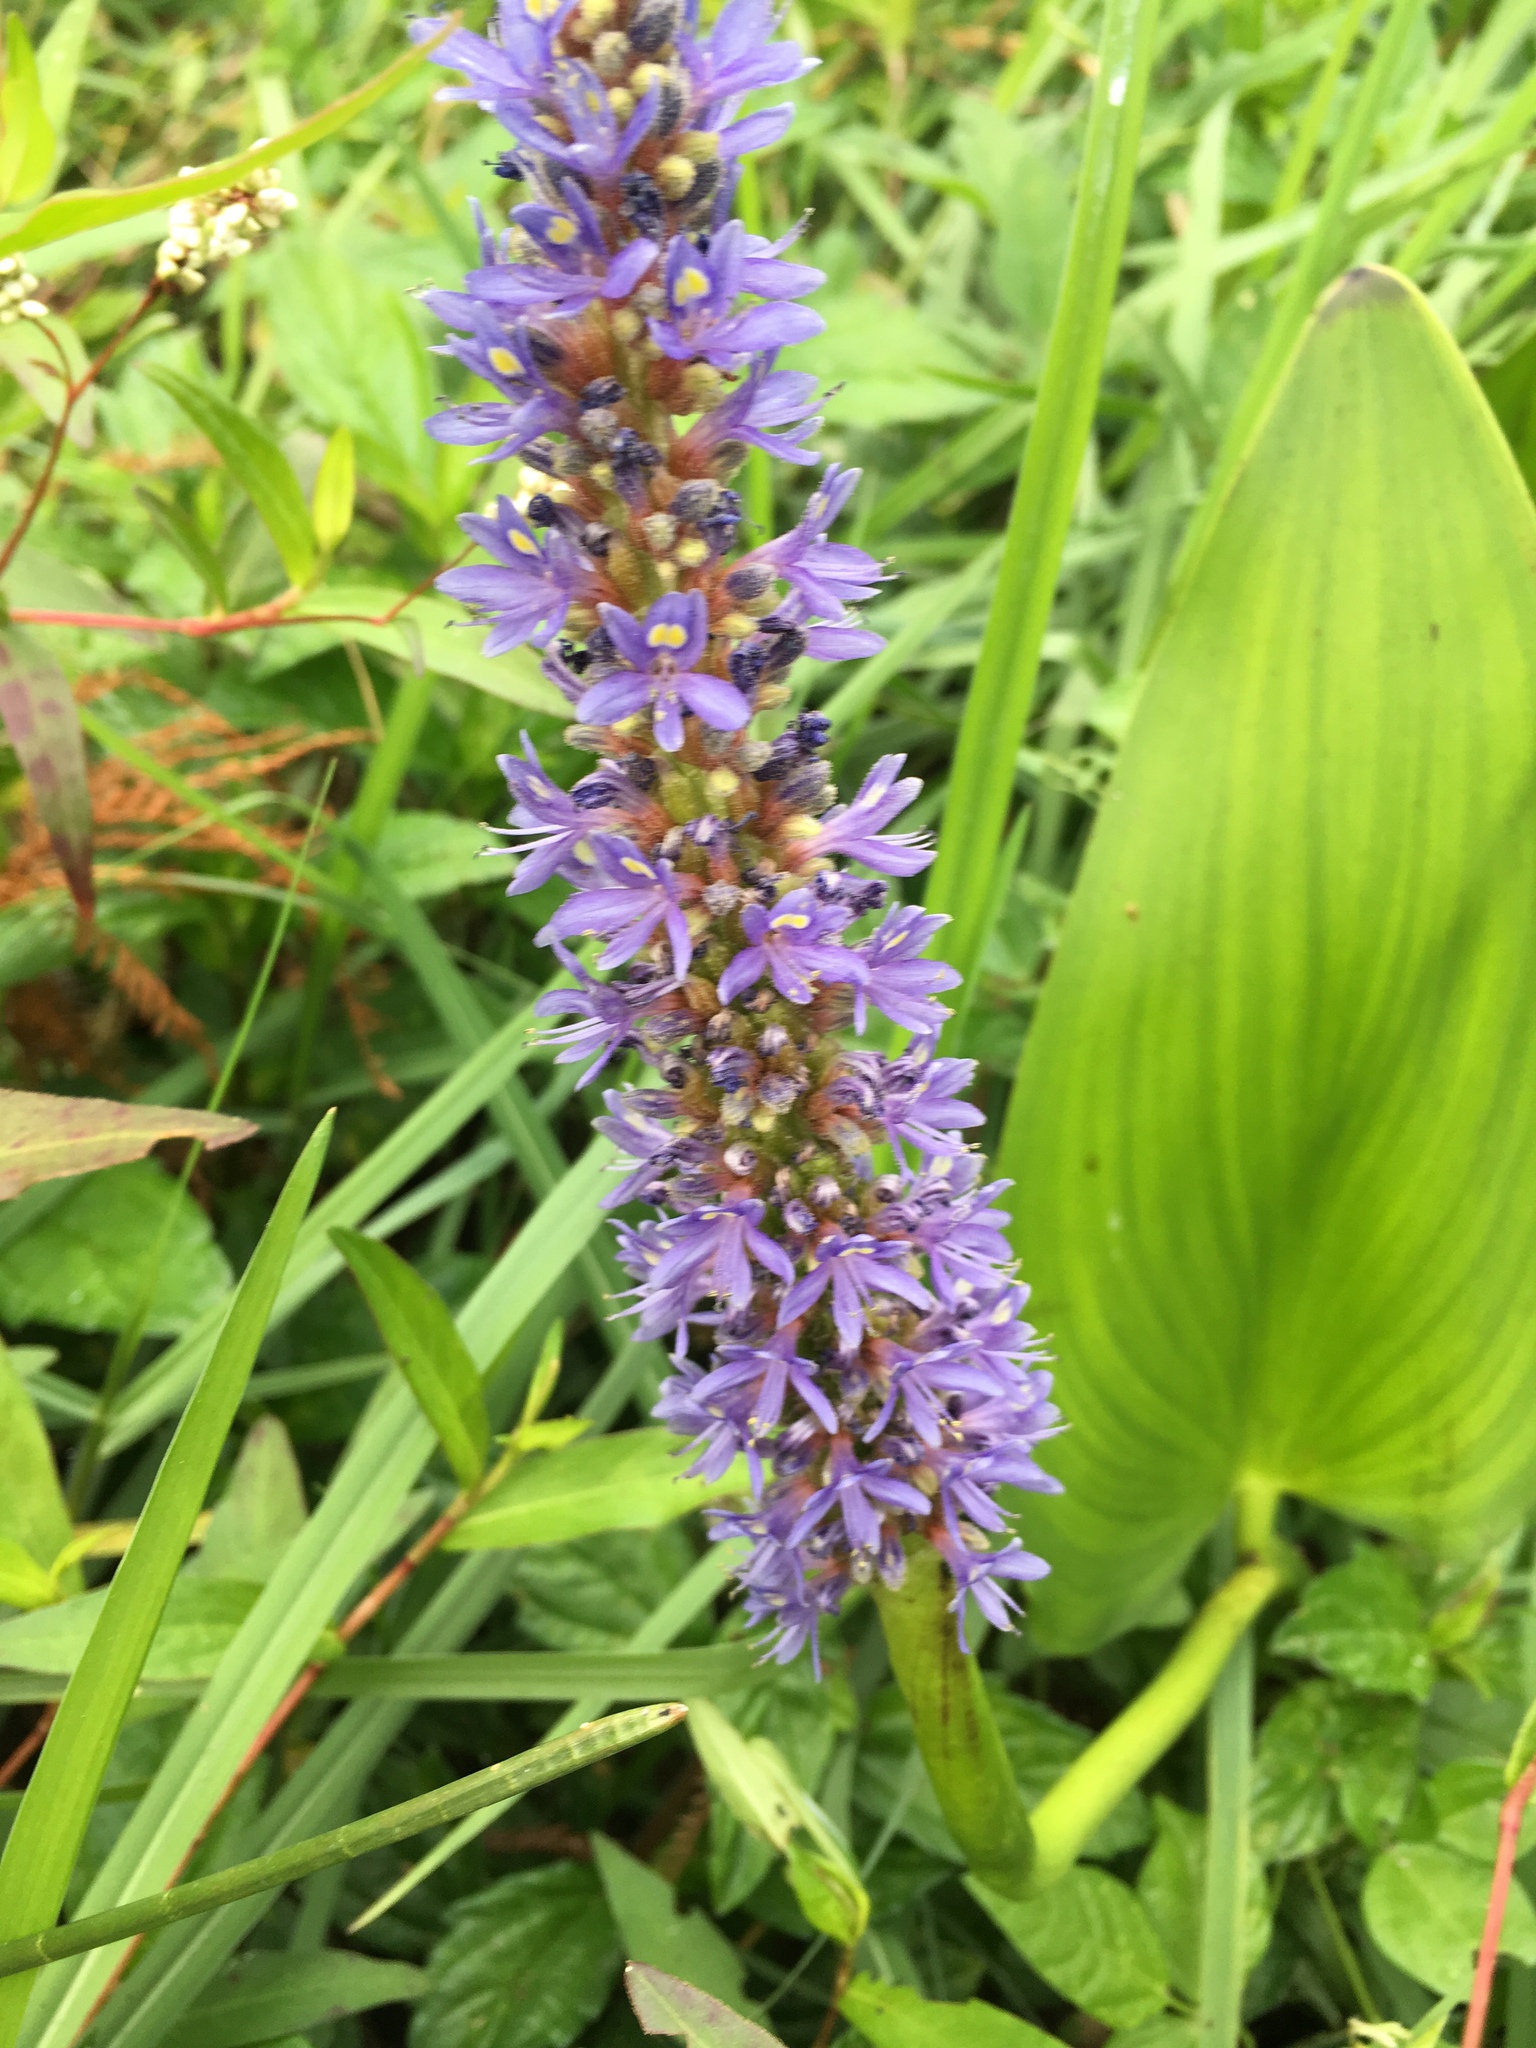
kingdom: Plantae
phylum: Tracheophyta
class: Liliopsida
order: Commelinales
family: Pontederiaceae
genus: Pontederia
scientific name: Pontederia cordata
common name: Pickerelweed
